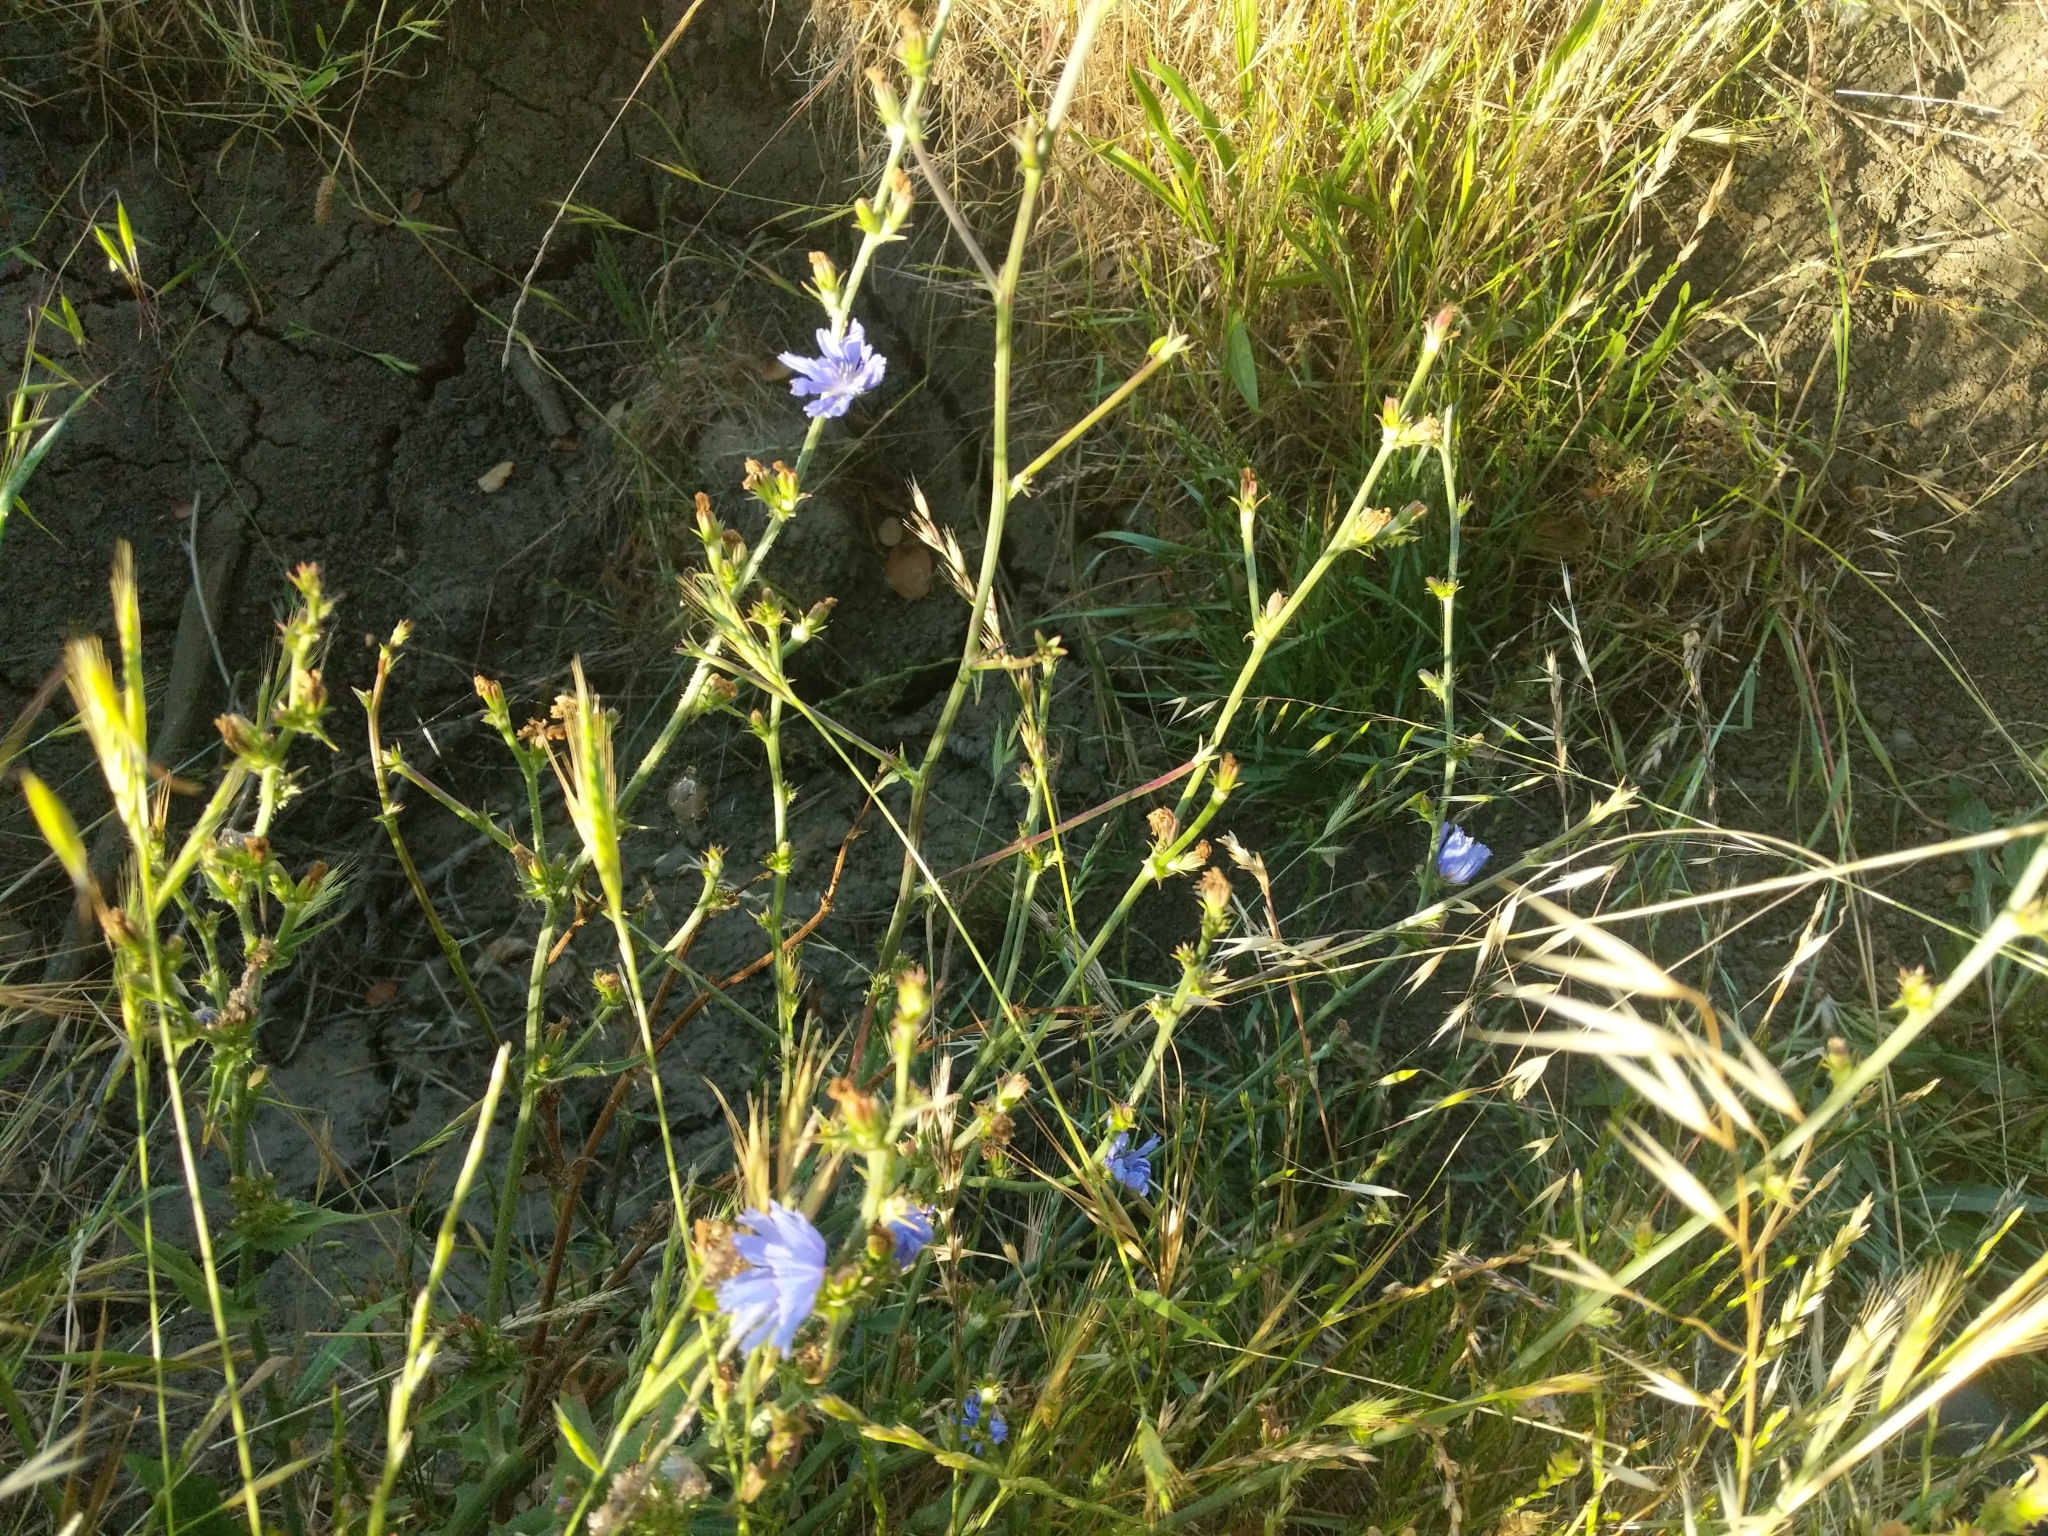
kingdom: Plantae
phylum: Tracheophyta
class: Magnoliopsida
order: Asterales
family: Asteraceae
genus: Cichorium
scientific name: Cichorium intybus
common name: Chicory
